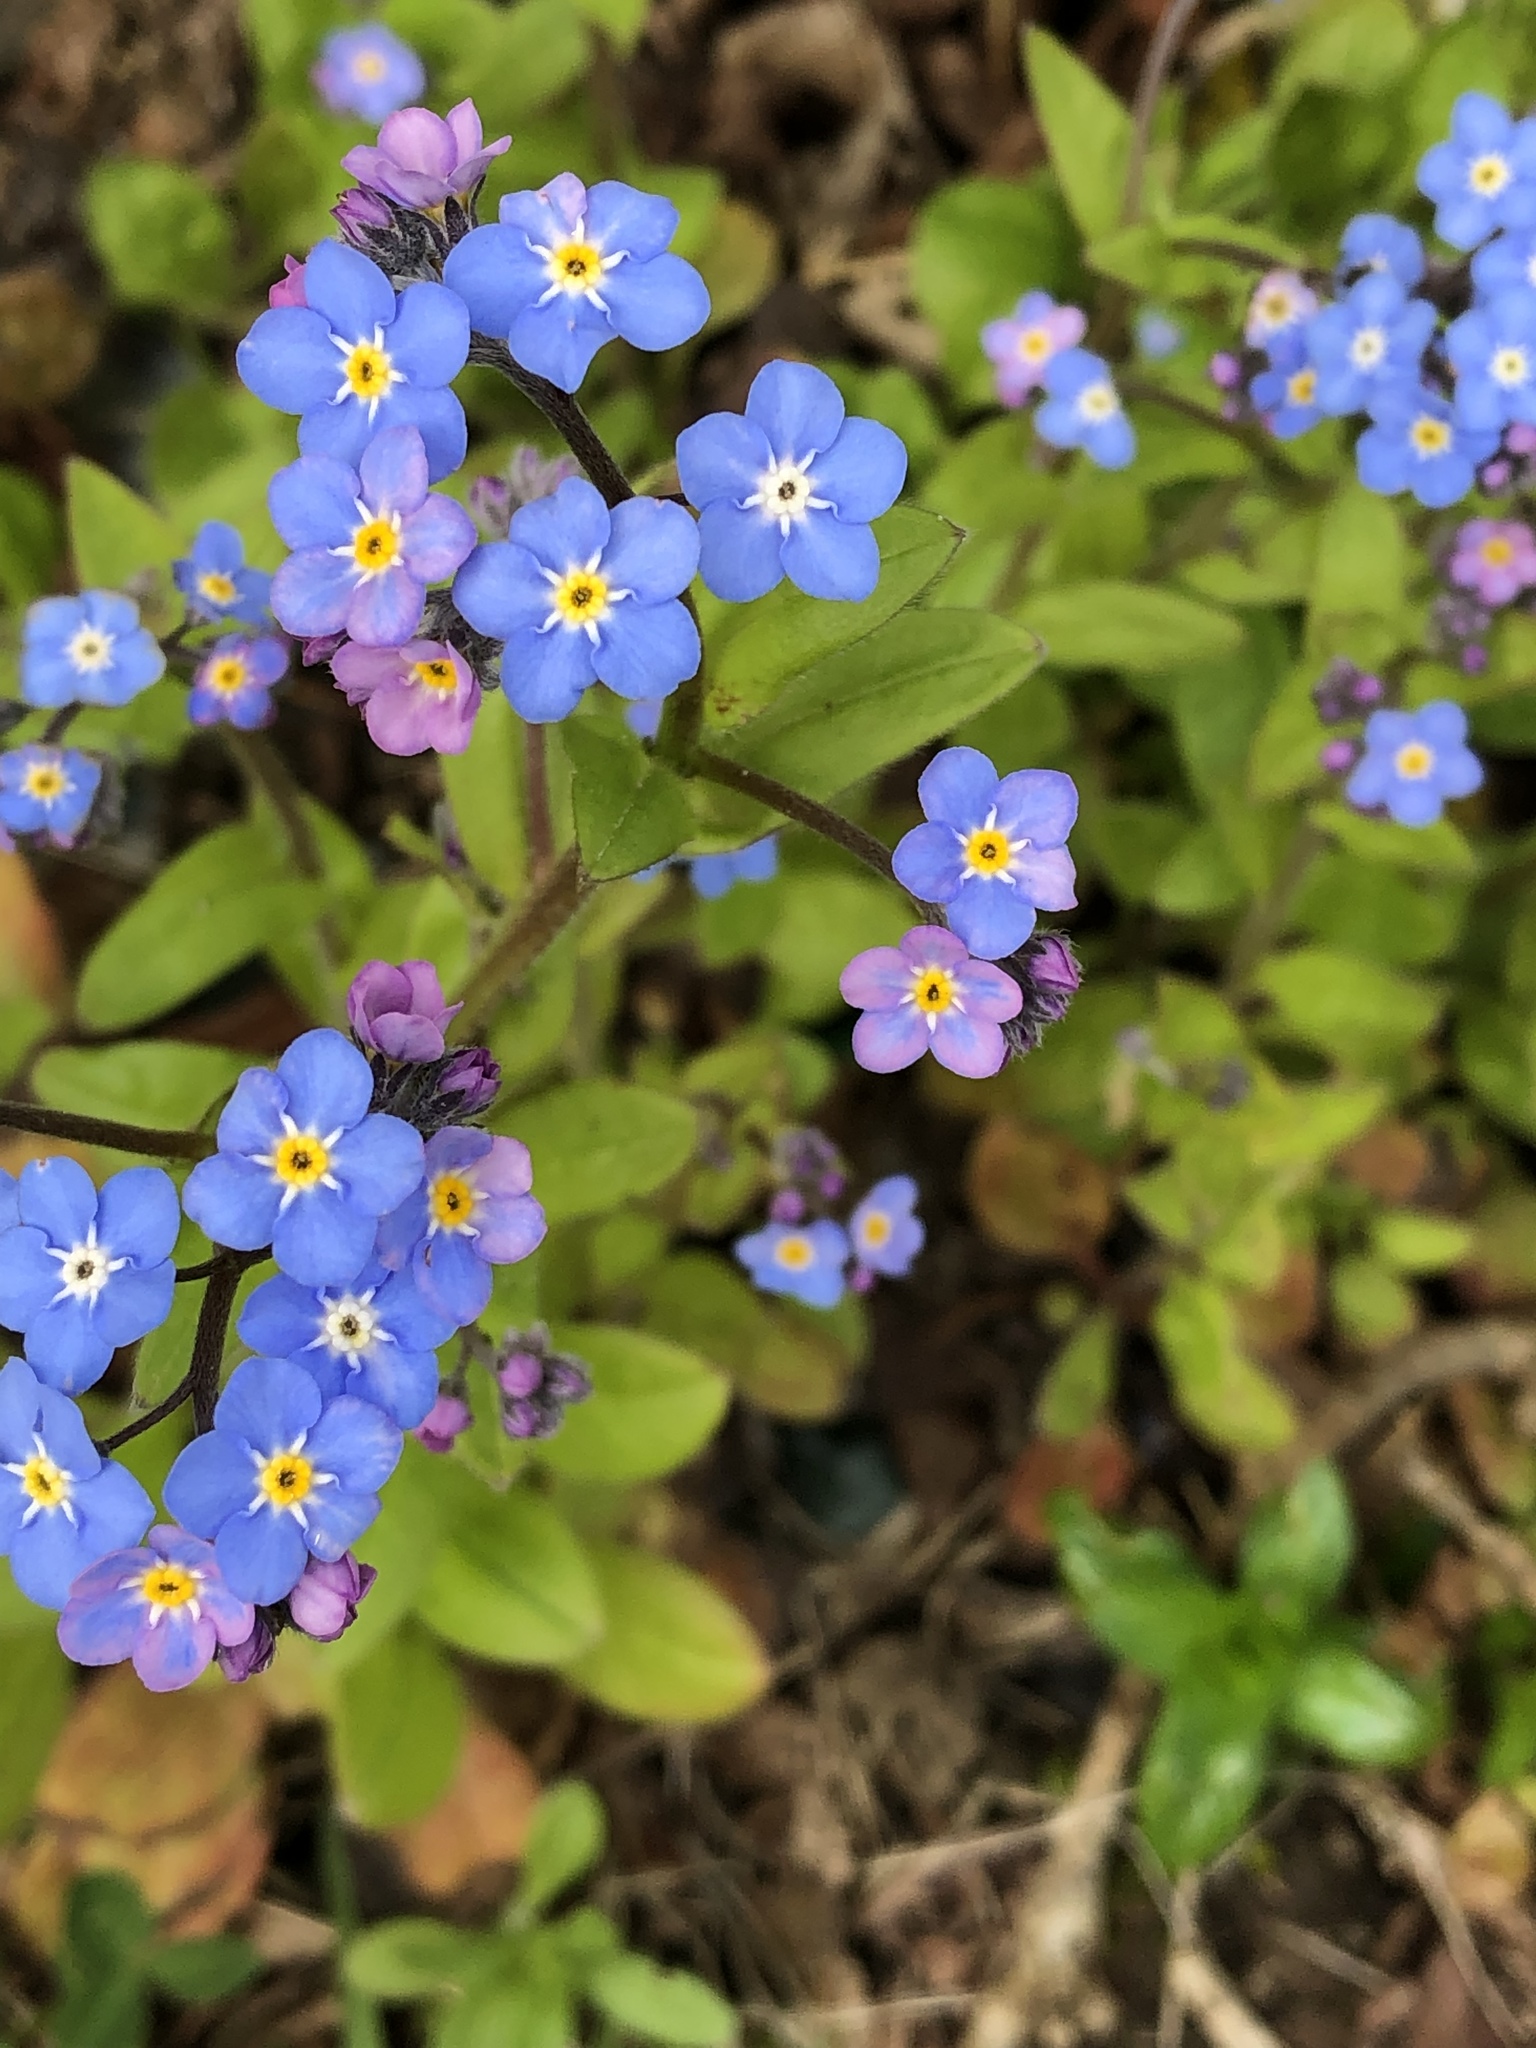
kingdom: Plantae
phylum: Tracheophyta
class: Magnoliopsida
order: Boraginales
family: Boraginaceae
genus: Myosotis
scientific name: Myosotis sylvatica
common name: Wood forget-me-not
